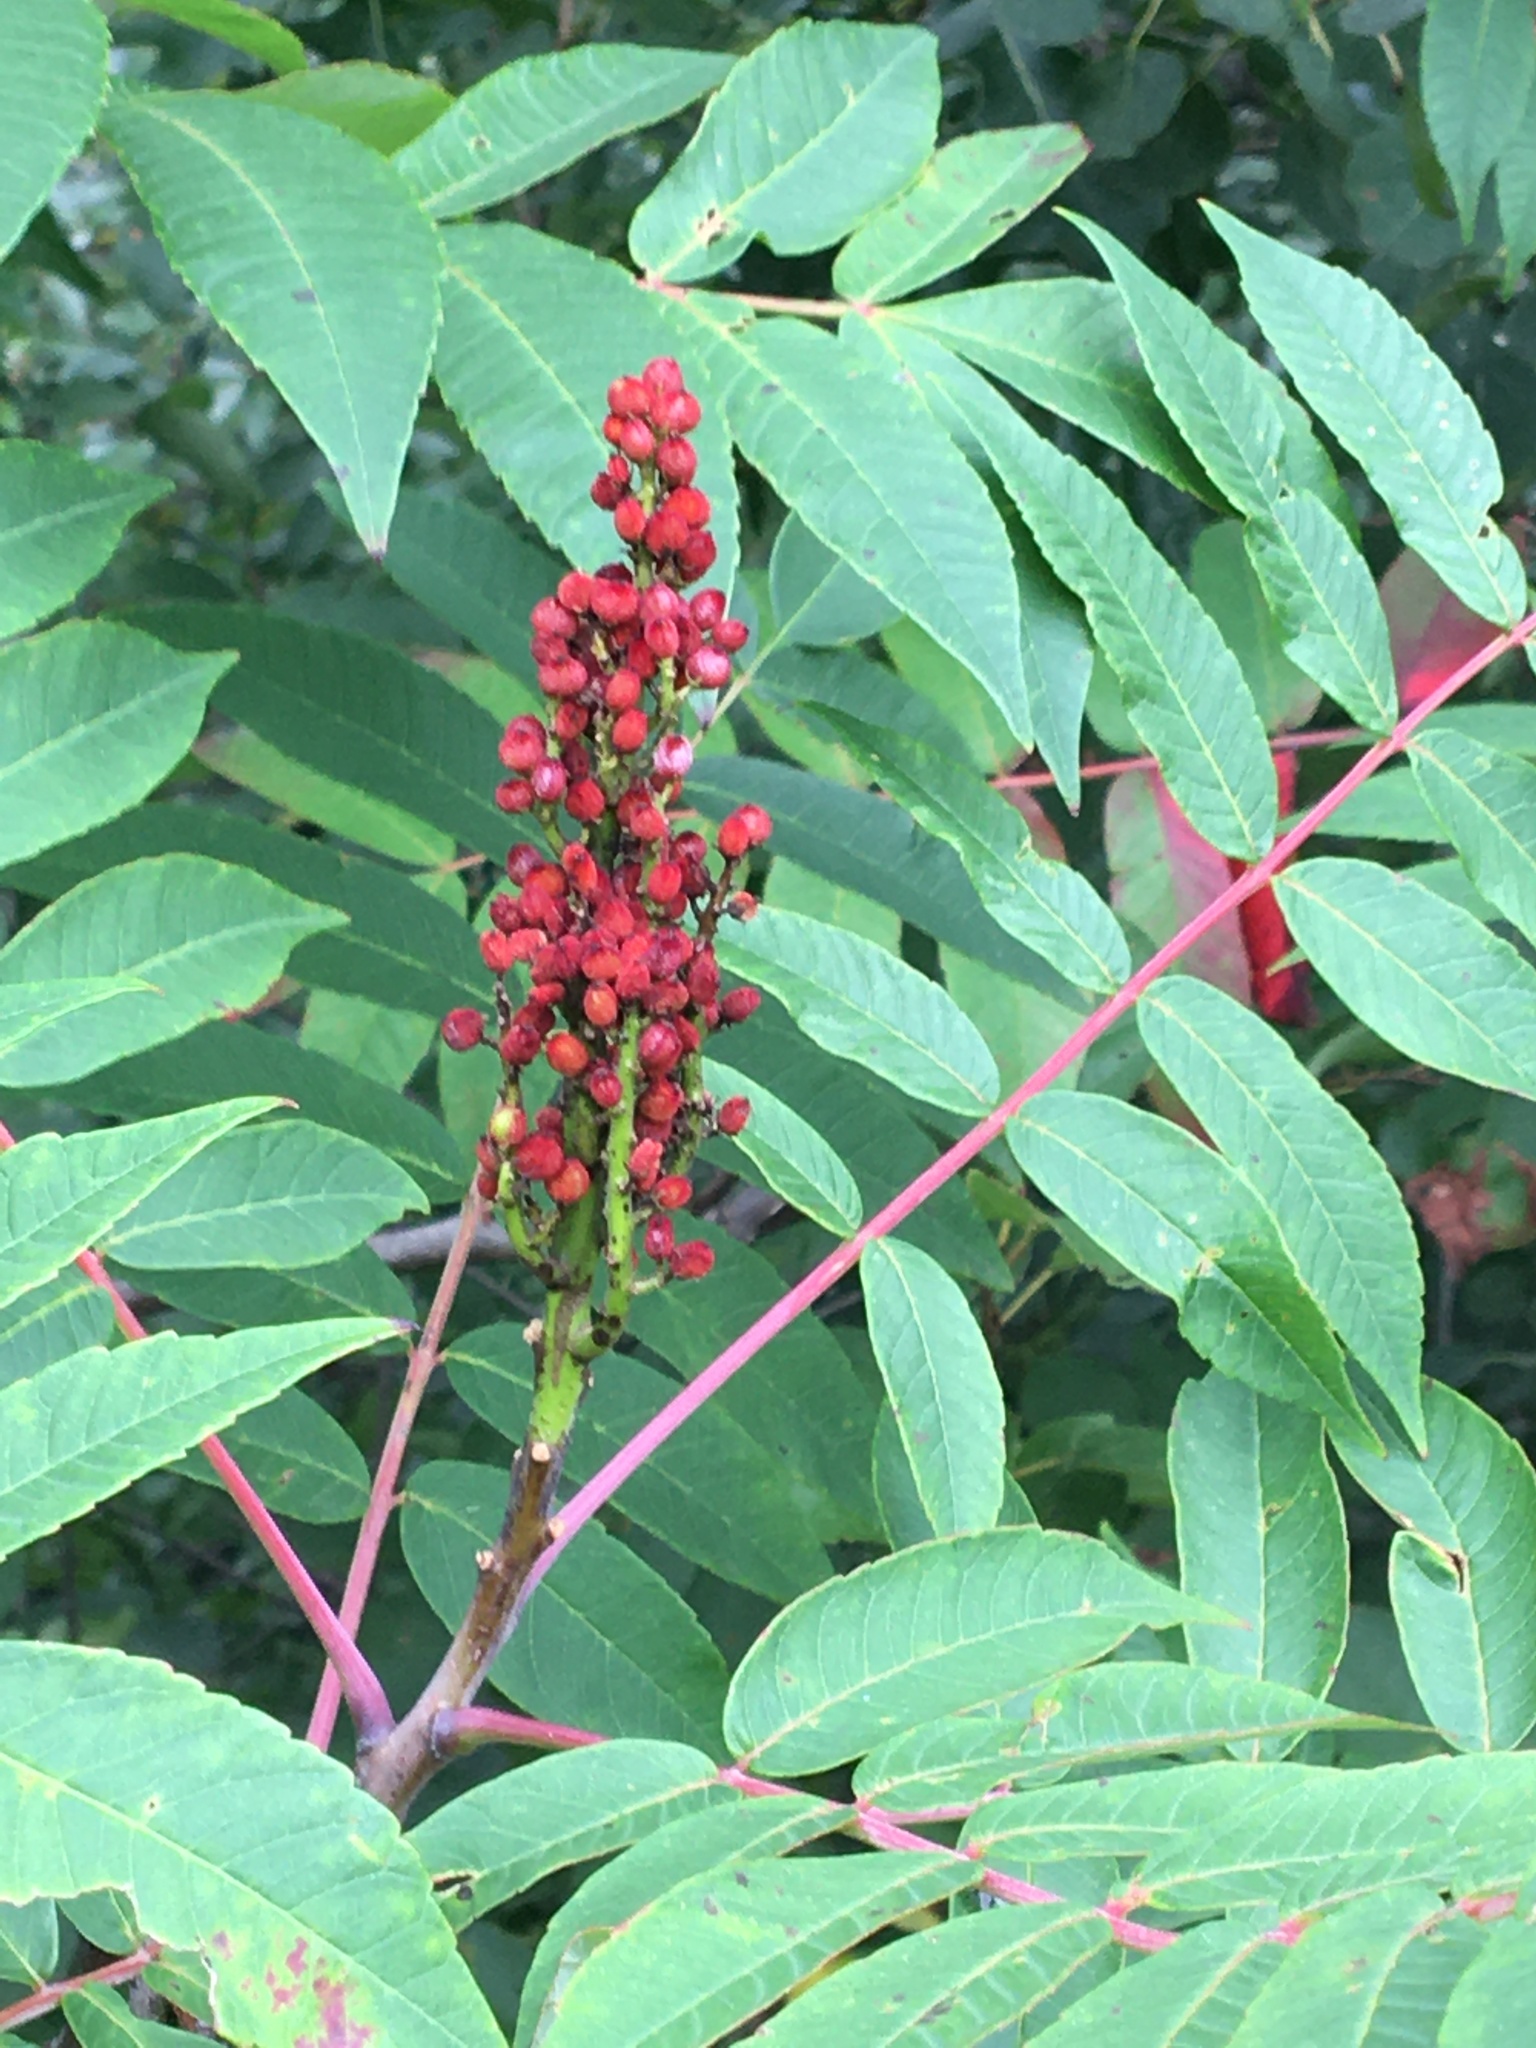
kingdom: Plantae
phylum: Tracheophyta
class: Magnoliopsida
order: Sapindales
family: Anacardiaceae
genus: Rhus
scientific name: Rhus glabra
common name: Scarlet sumac
